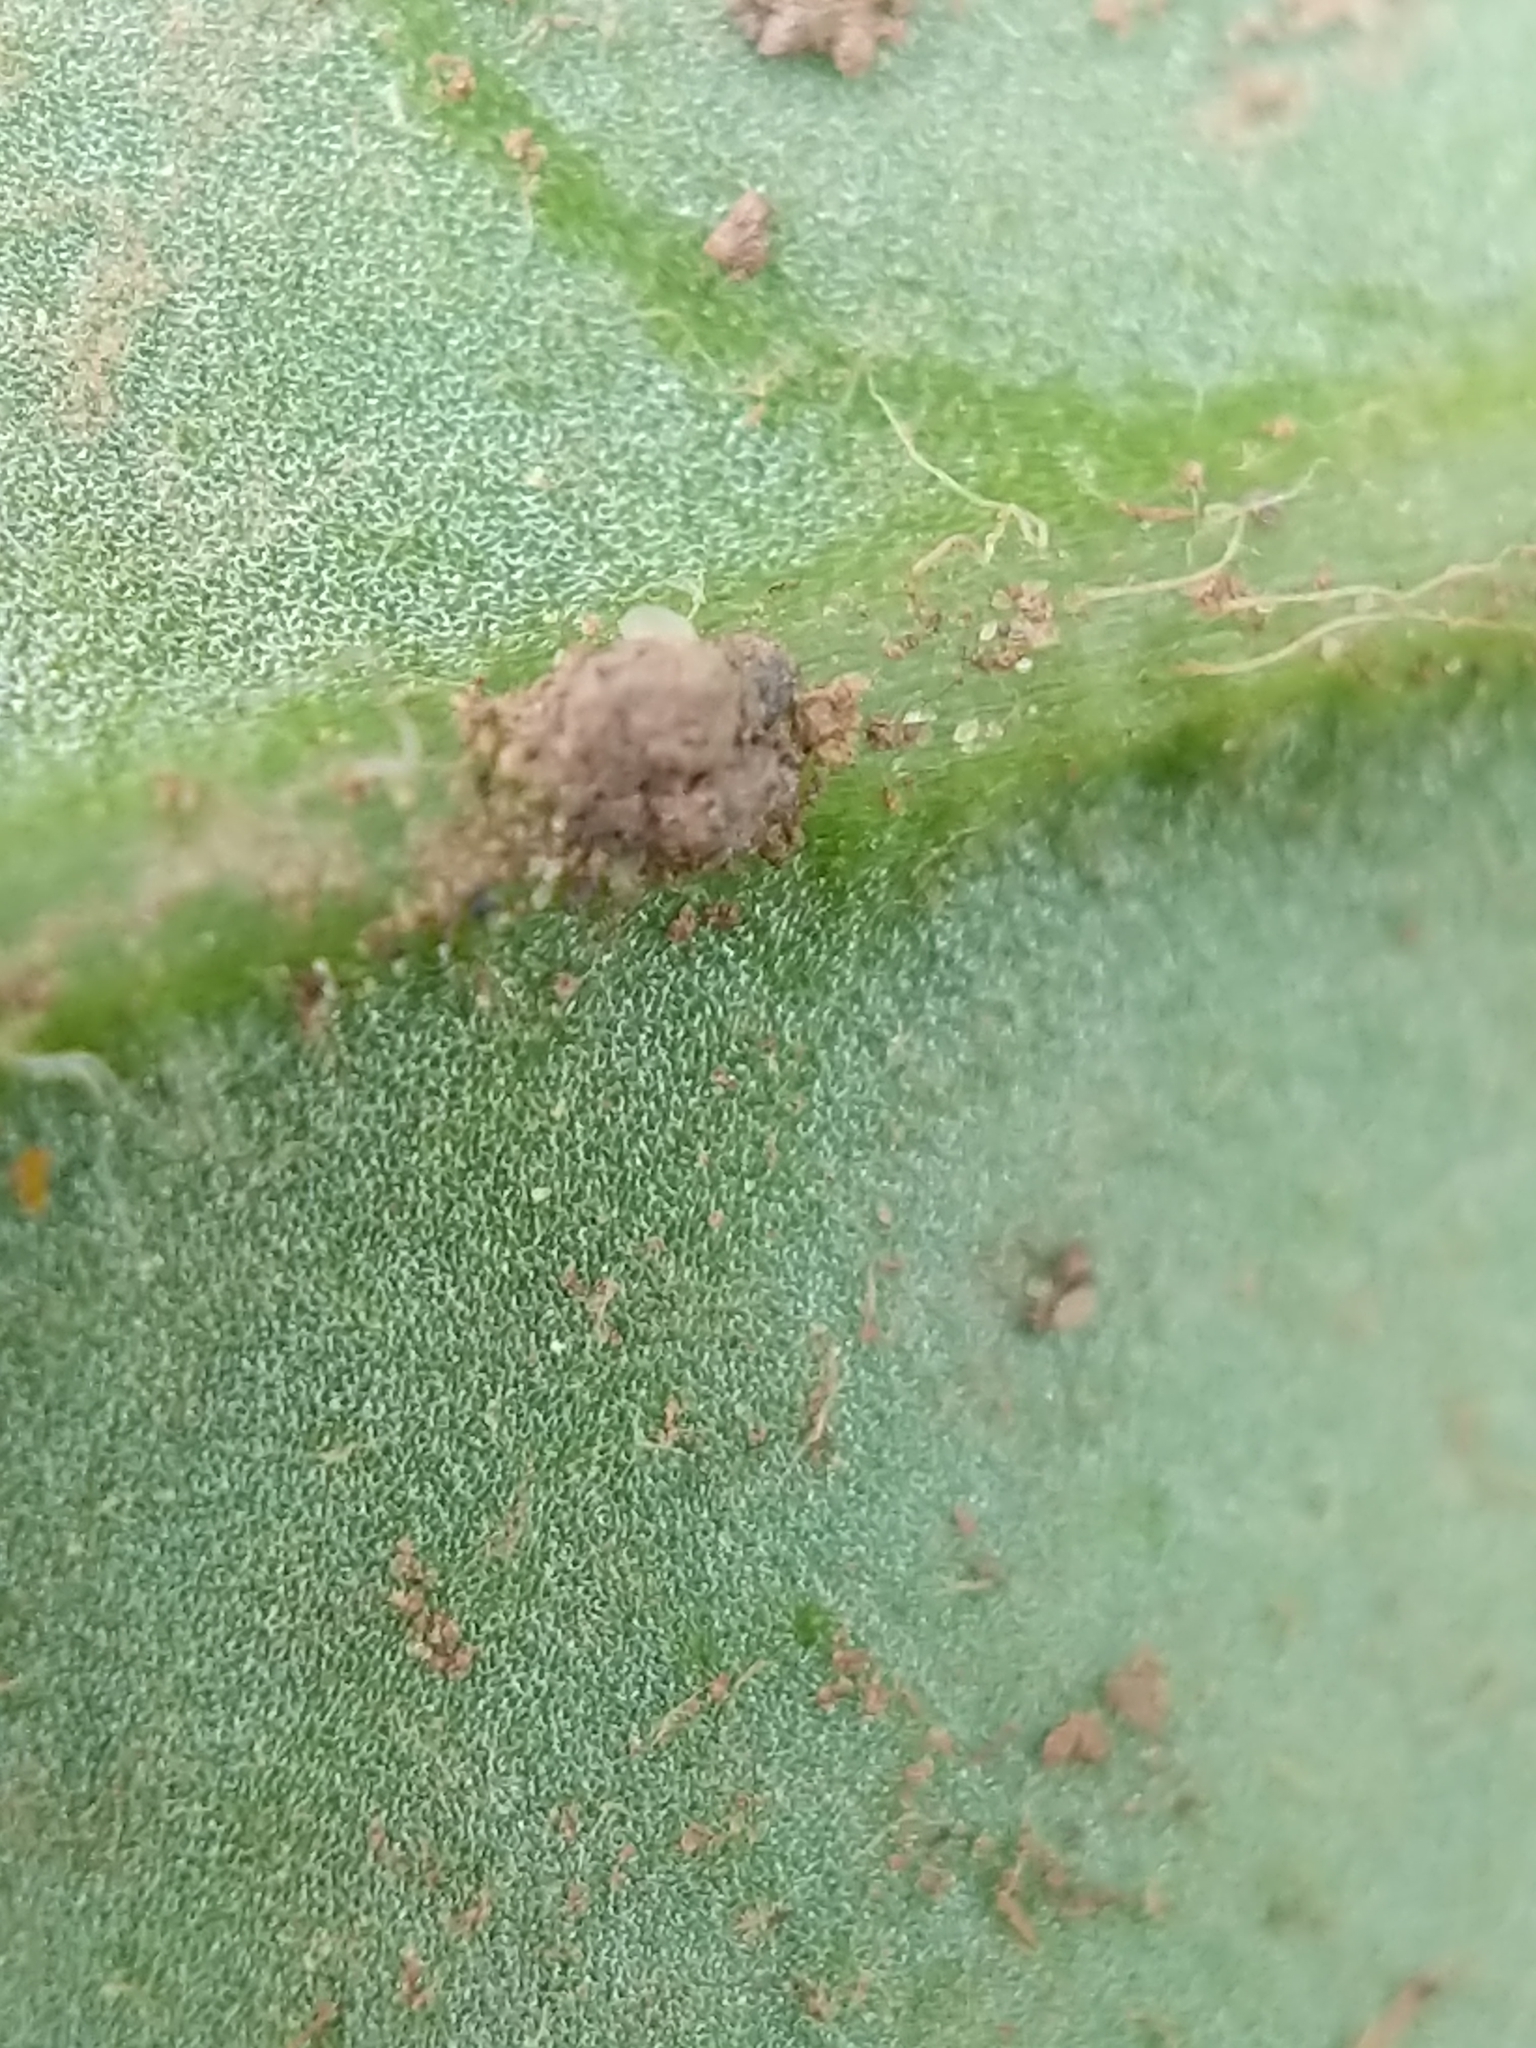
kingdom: Plantae
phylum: Tracheophyta
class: Magnoliopsida
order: Asterales
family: Asteraceae
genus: Hieracium
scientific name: Hieracium venosum
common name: Rattlesnake hawkweed
